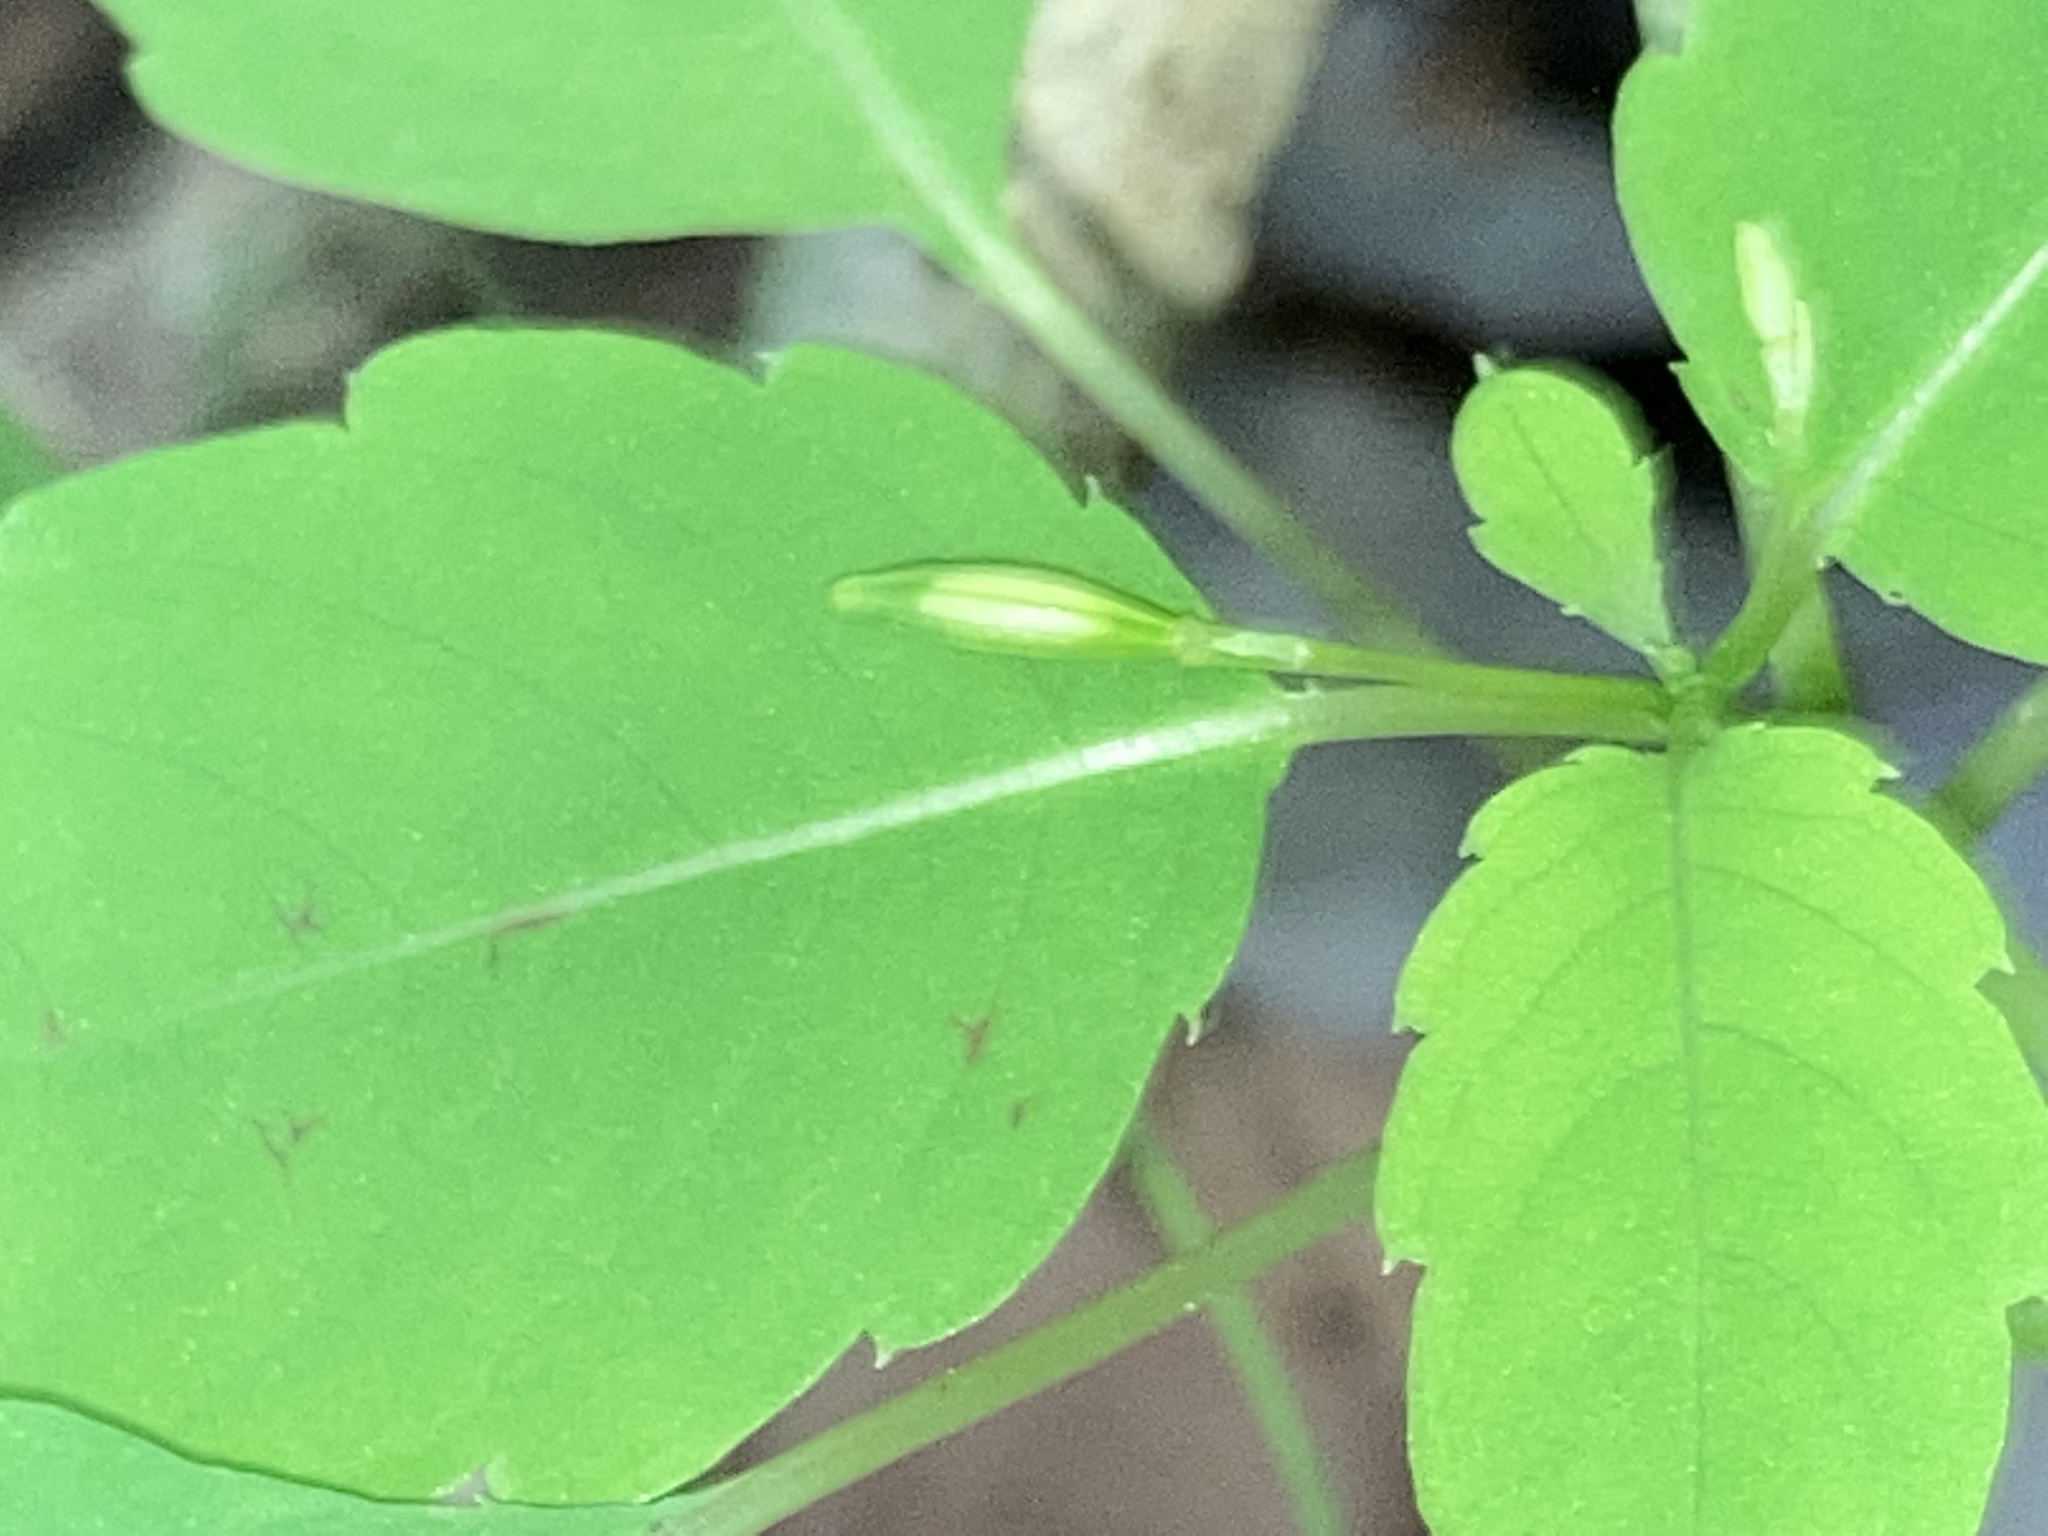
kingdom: Plantae
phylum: Tracheophyta
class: Magnoliopsida
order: Ericales
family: Balsaminaceae
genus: Impatiens
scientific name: Impatiens capensis
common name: Orange balsam
